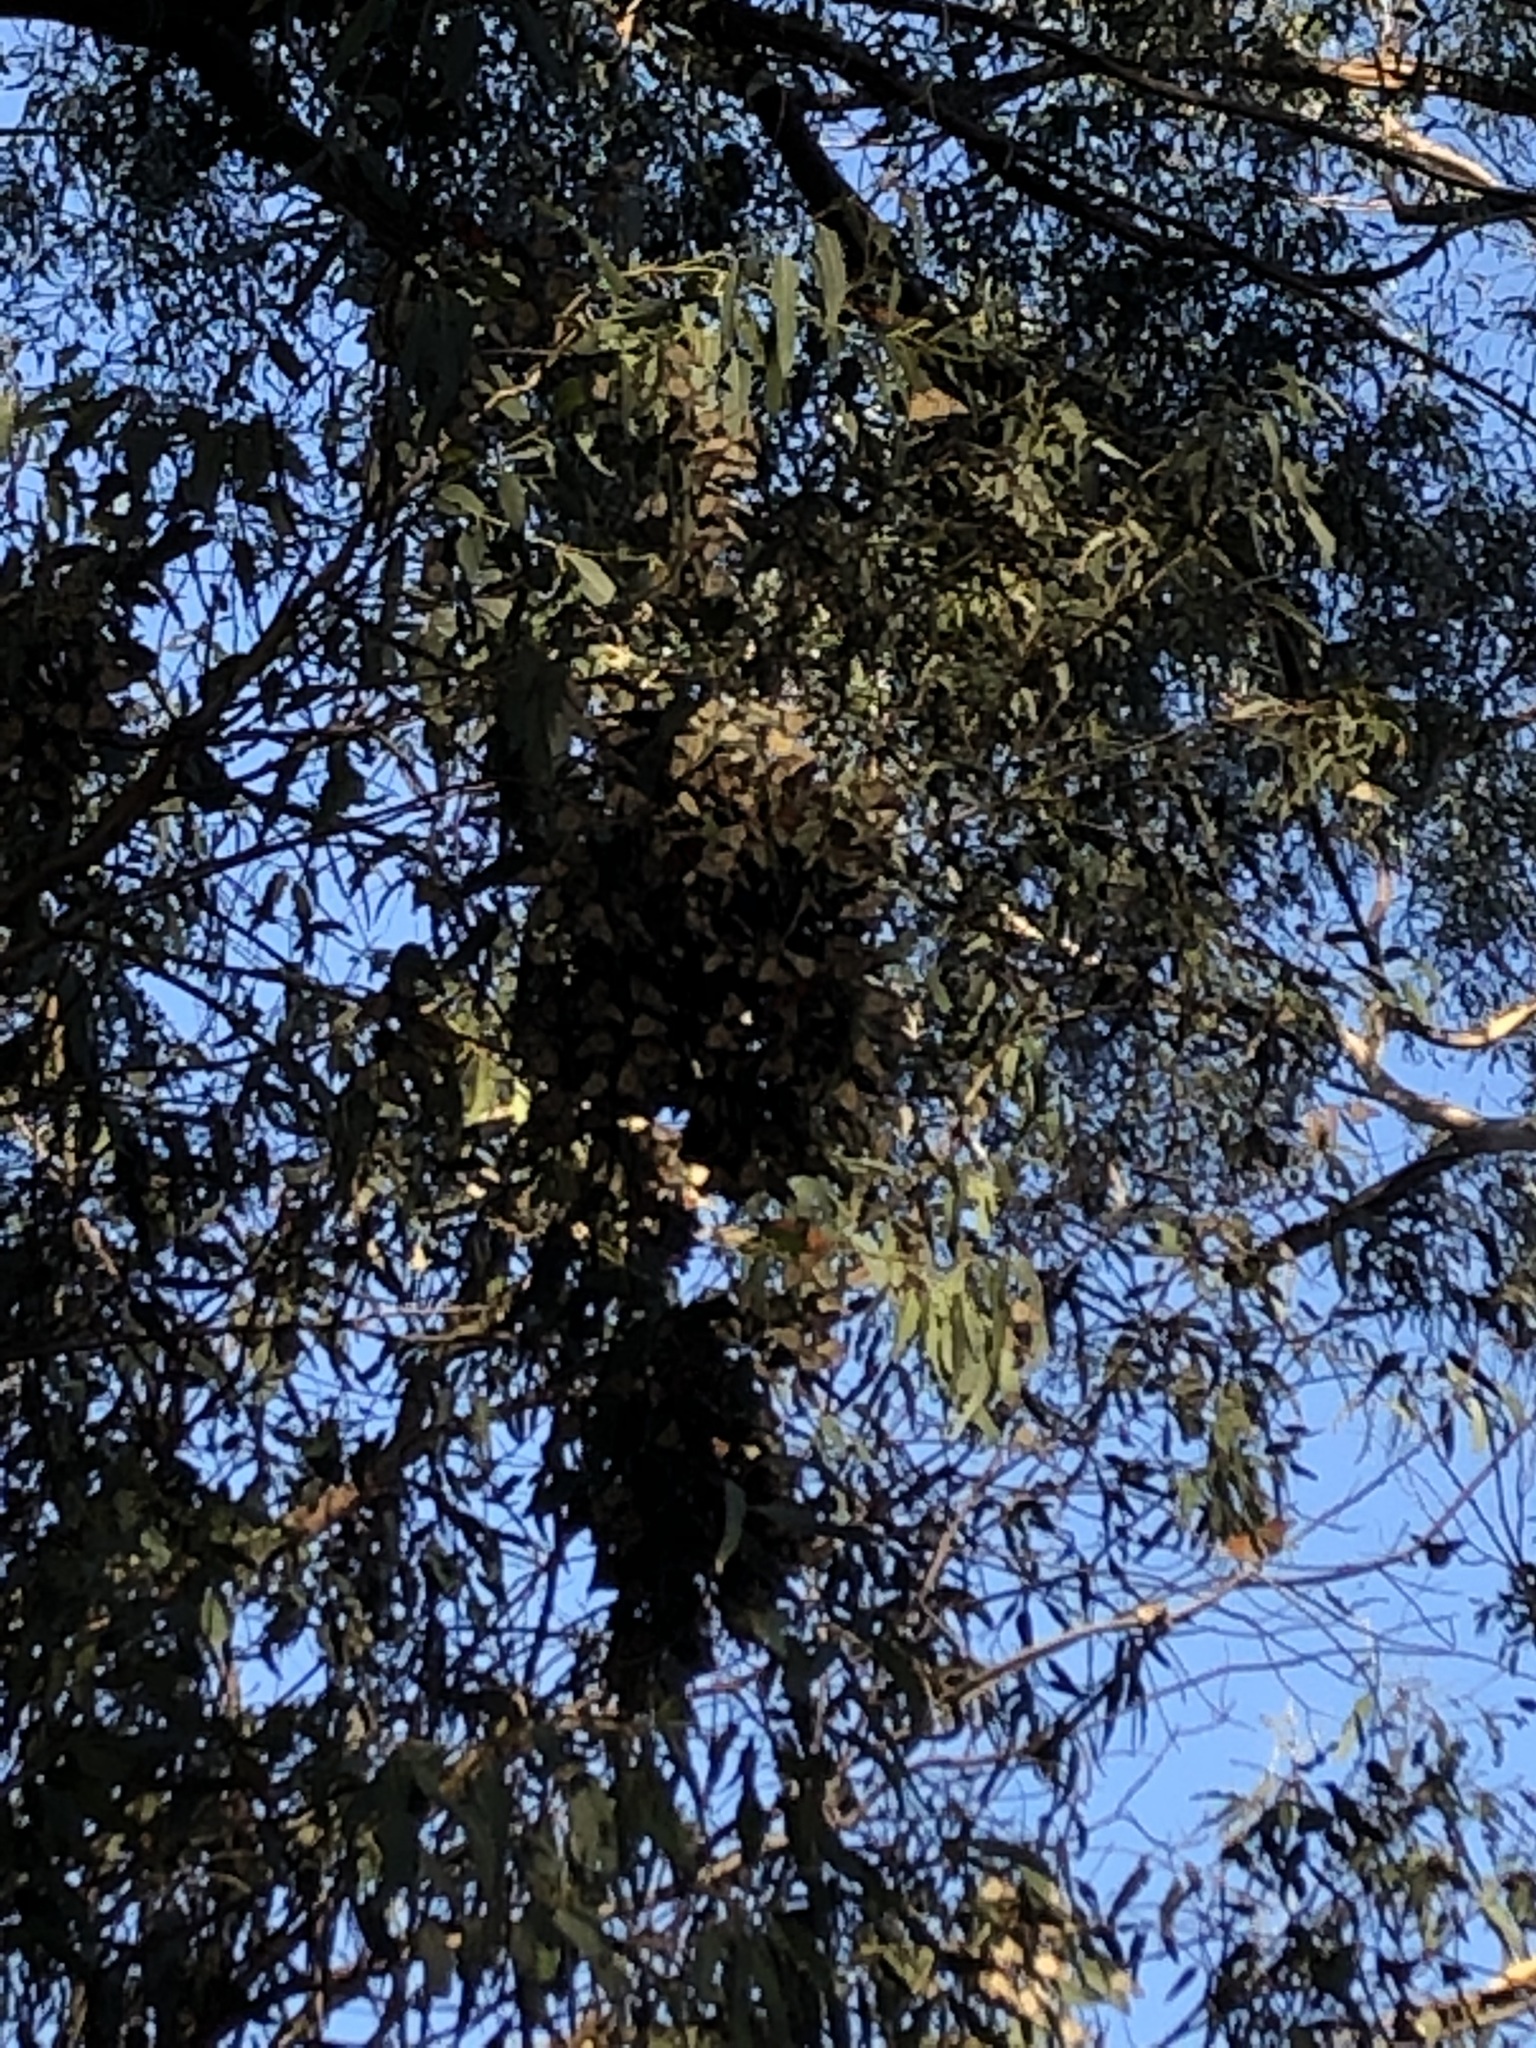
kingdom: Animalia
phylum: Arthropoda
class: Insecta
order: Lepidoptera
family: Nymphalidae
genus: Danaus
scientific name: Danaus plexippus
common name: Monarch
